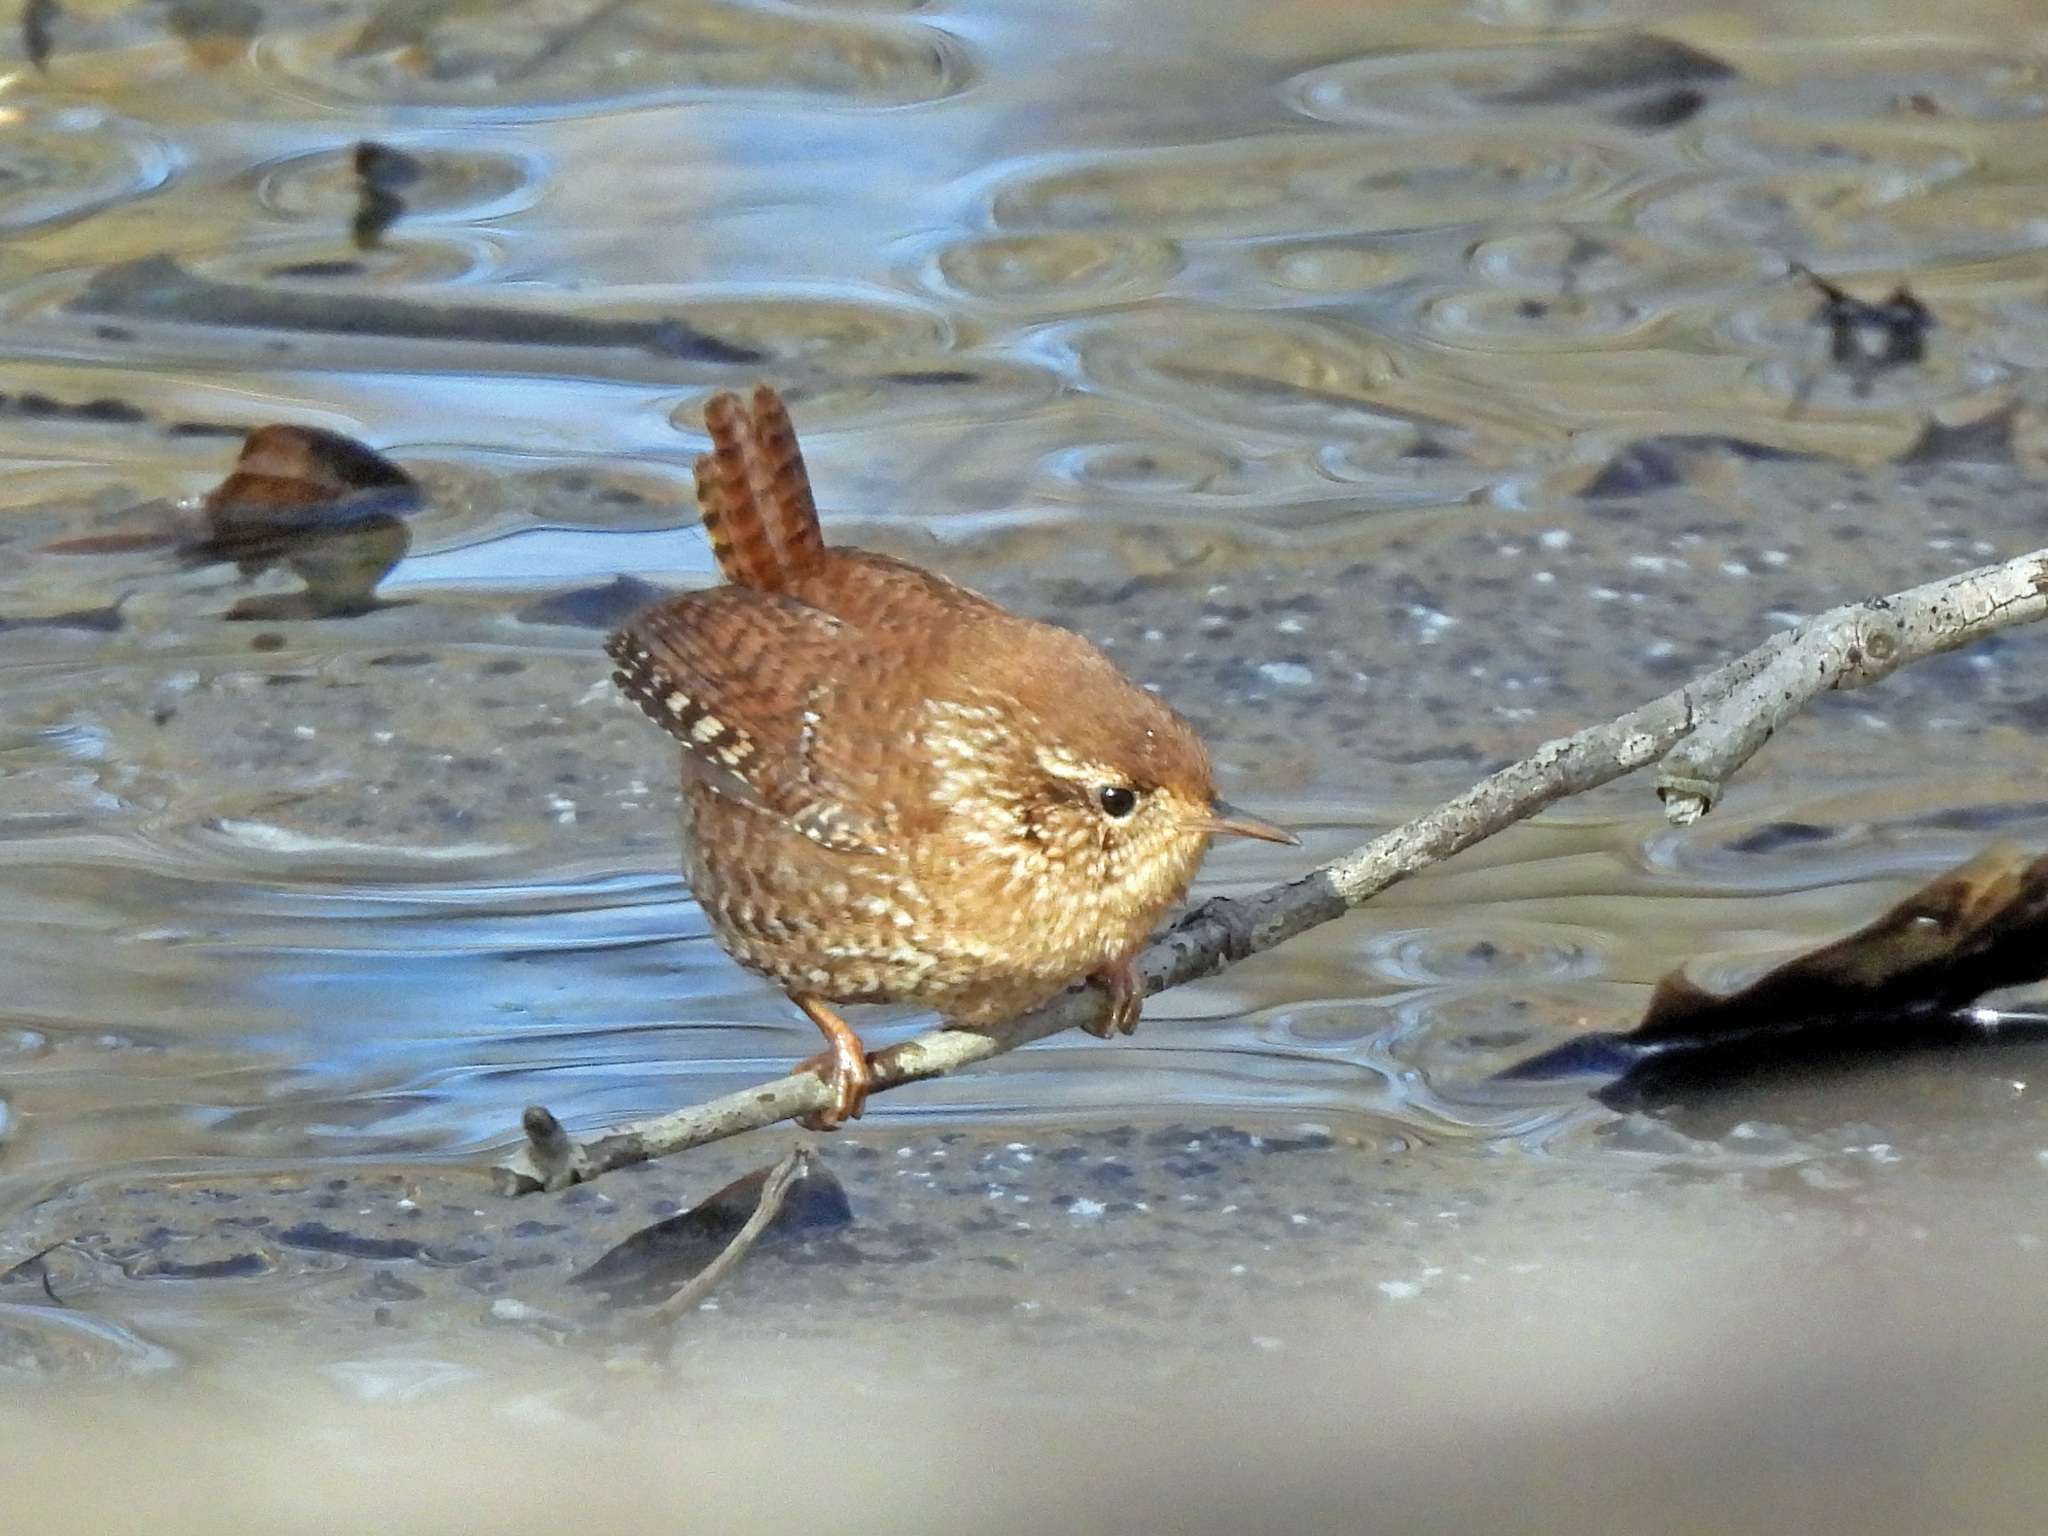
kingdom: Animalia
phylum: Chordata
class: Aves
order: Passeriformes
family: Troglodytidae
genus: Troglodytes
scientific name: Troglodytes hiemalis
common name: Winter wren
